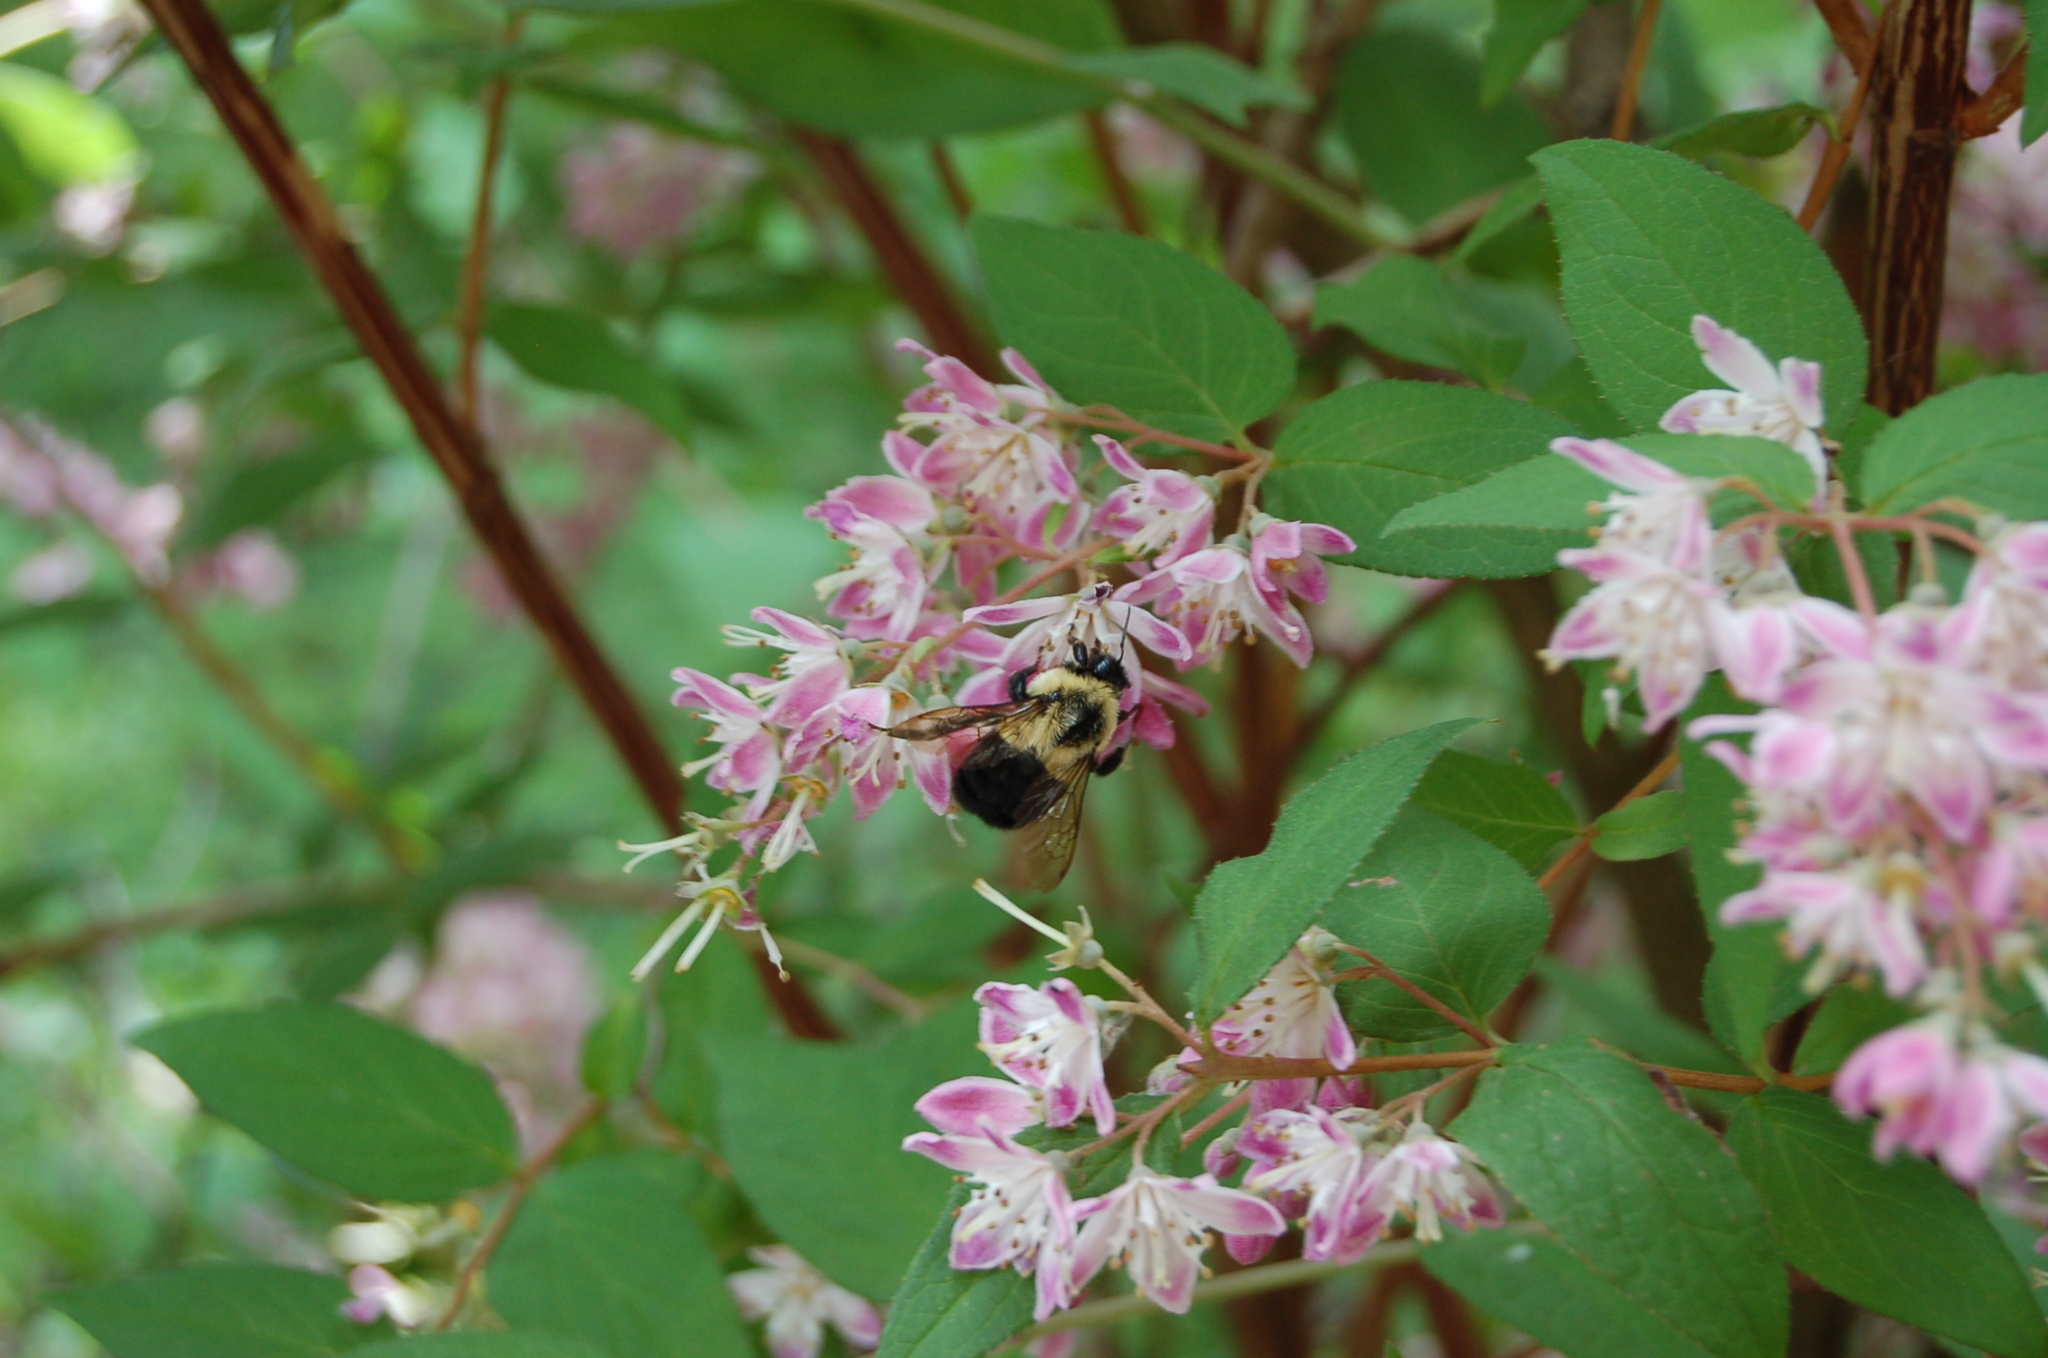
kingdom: Animalia
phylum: Arthropoda
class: Insecta
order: Hymenoptera
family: Apidae
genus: Bombus
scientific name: Bombus impatiens
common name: Common eastern bumble bee
